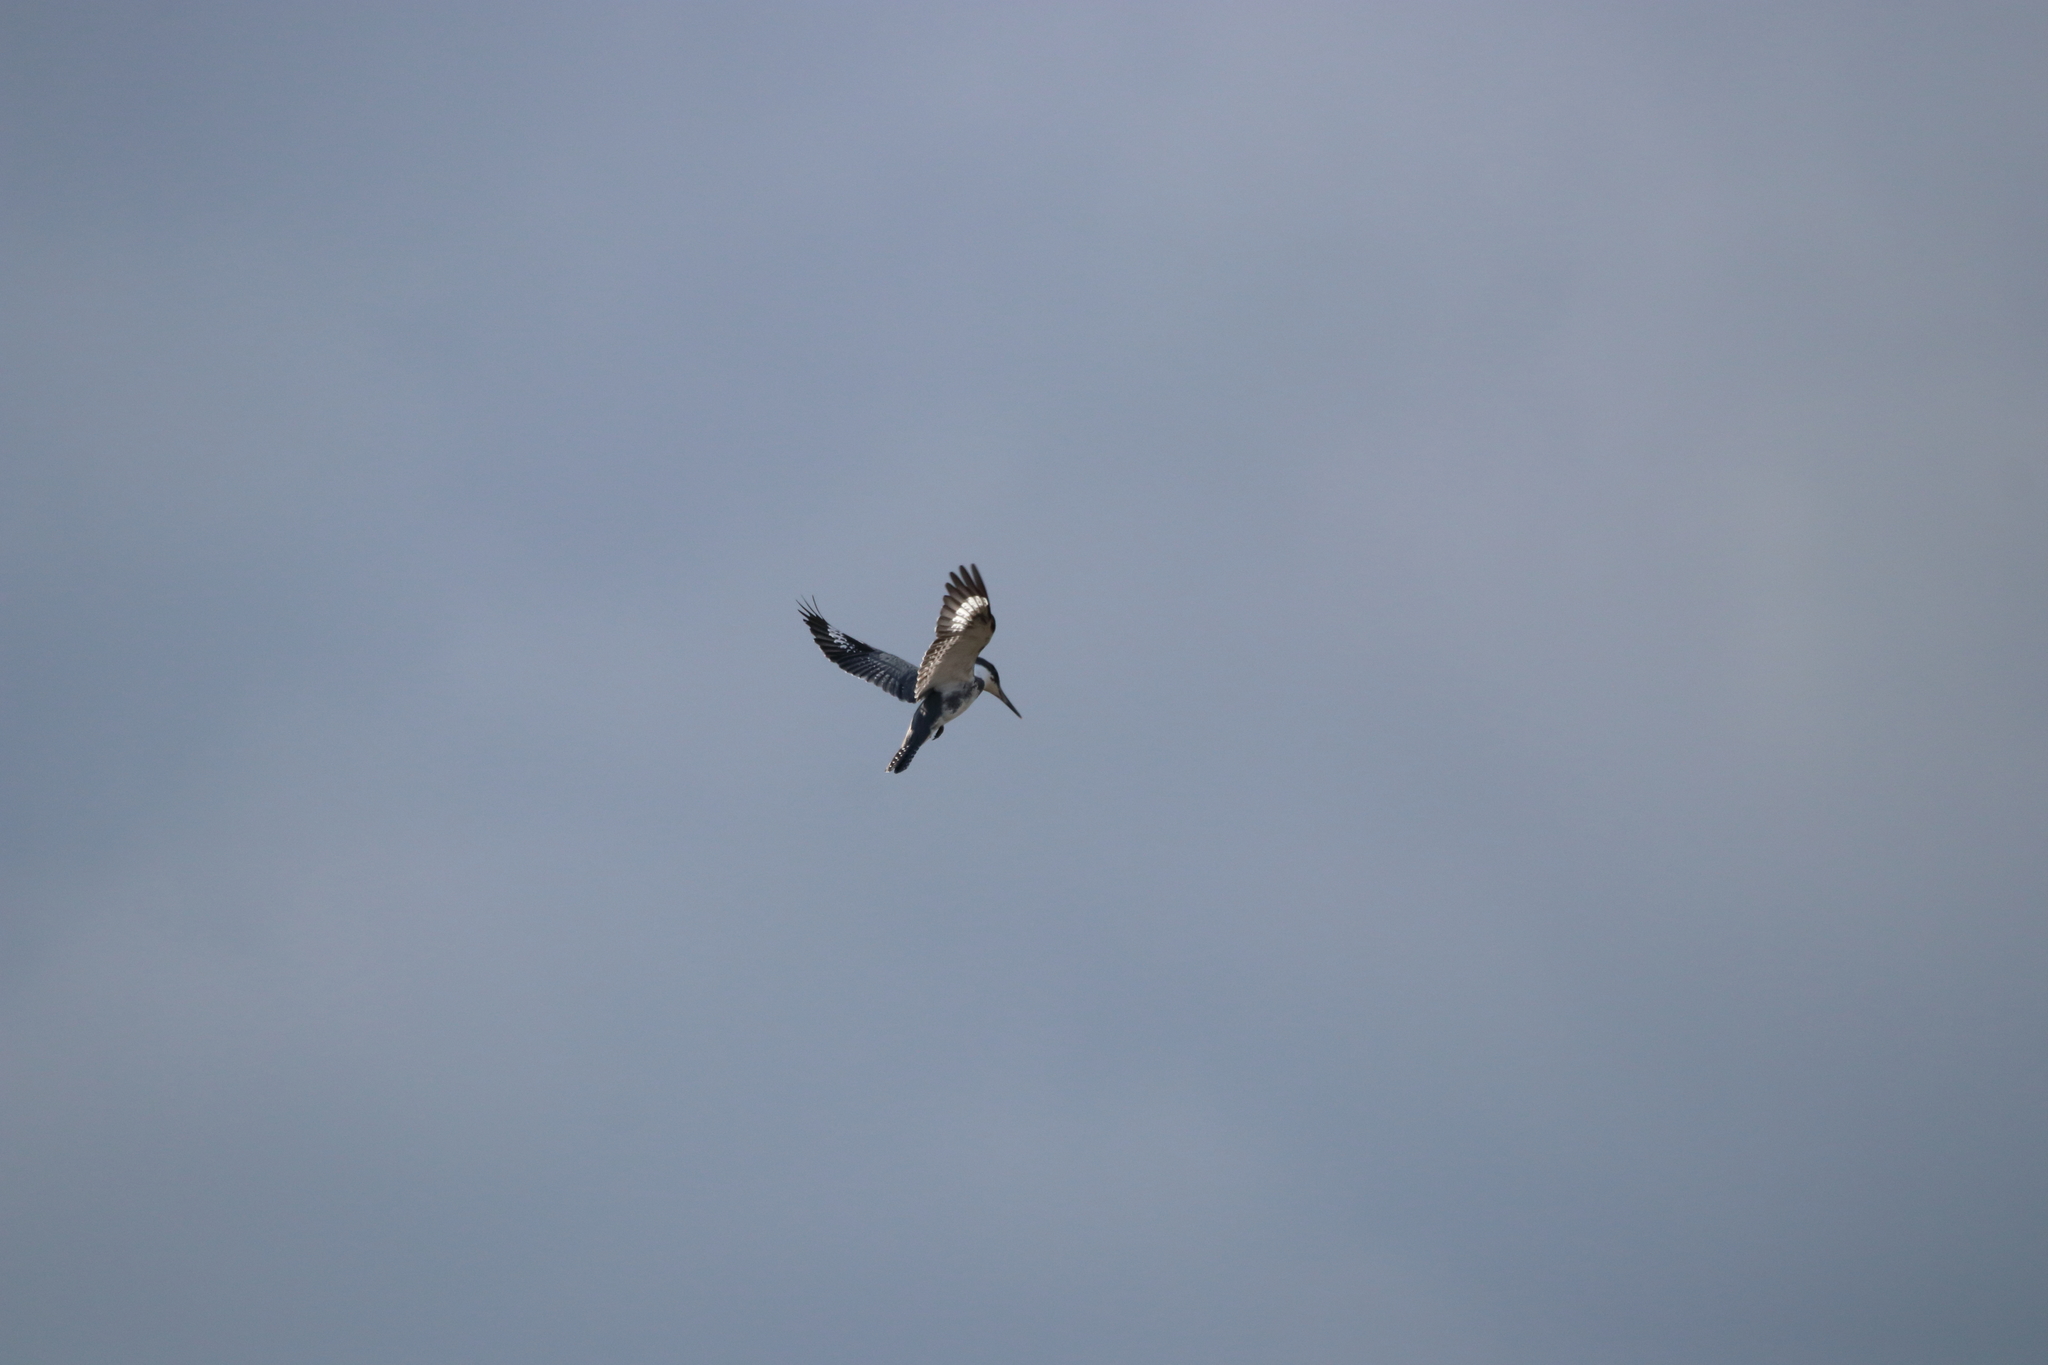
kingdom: Animalia
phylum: Chordata
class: Aves
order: Coraciiformes
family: Alcedinidae
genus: Megaceryle
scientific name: Megaceryle alcyon
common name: Belted kingfisher
